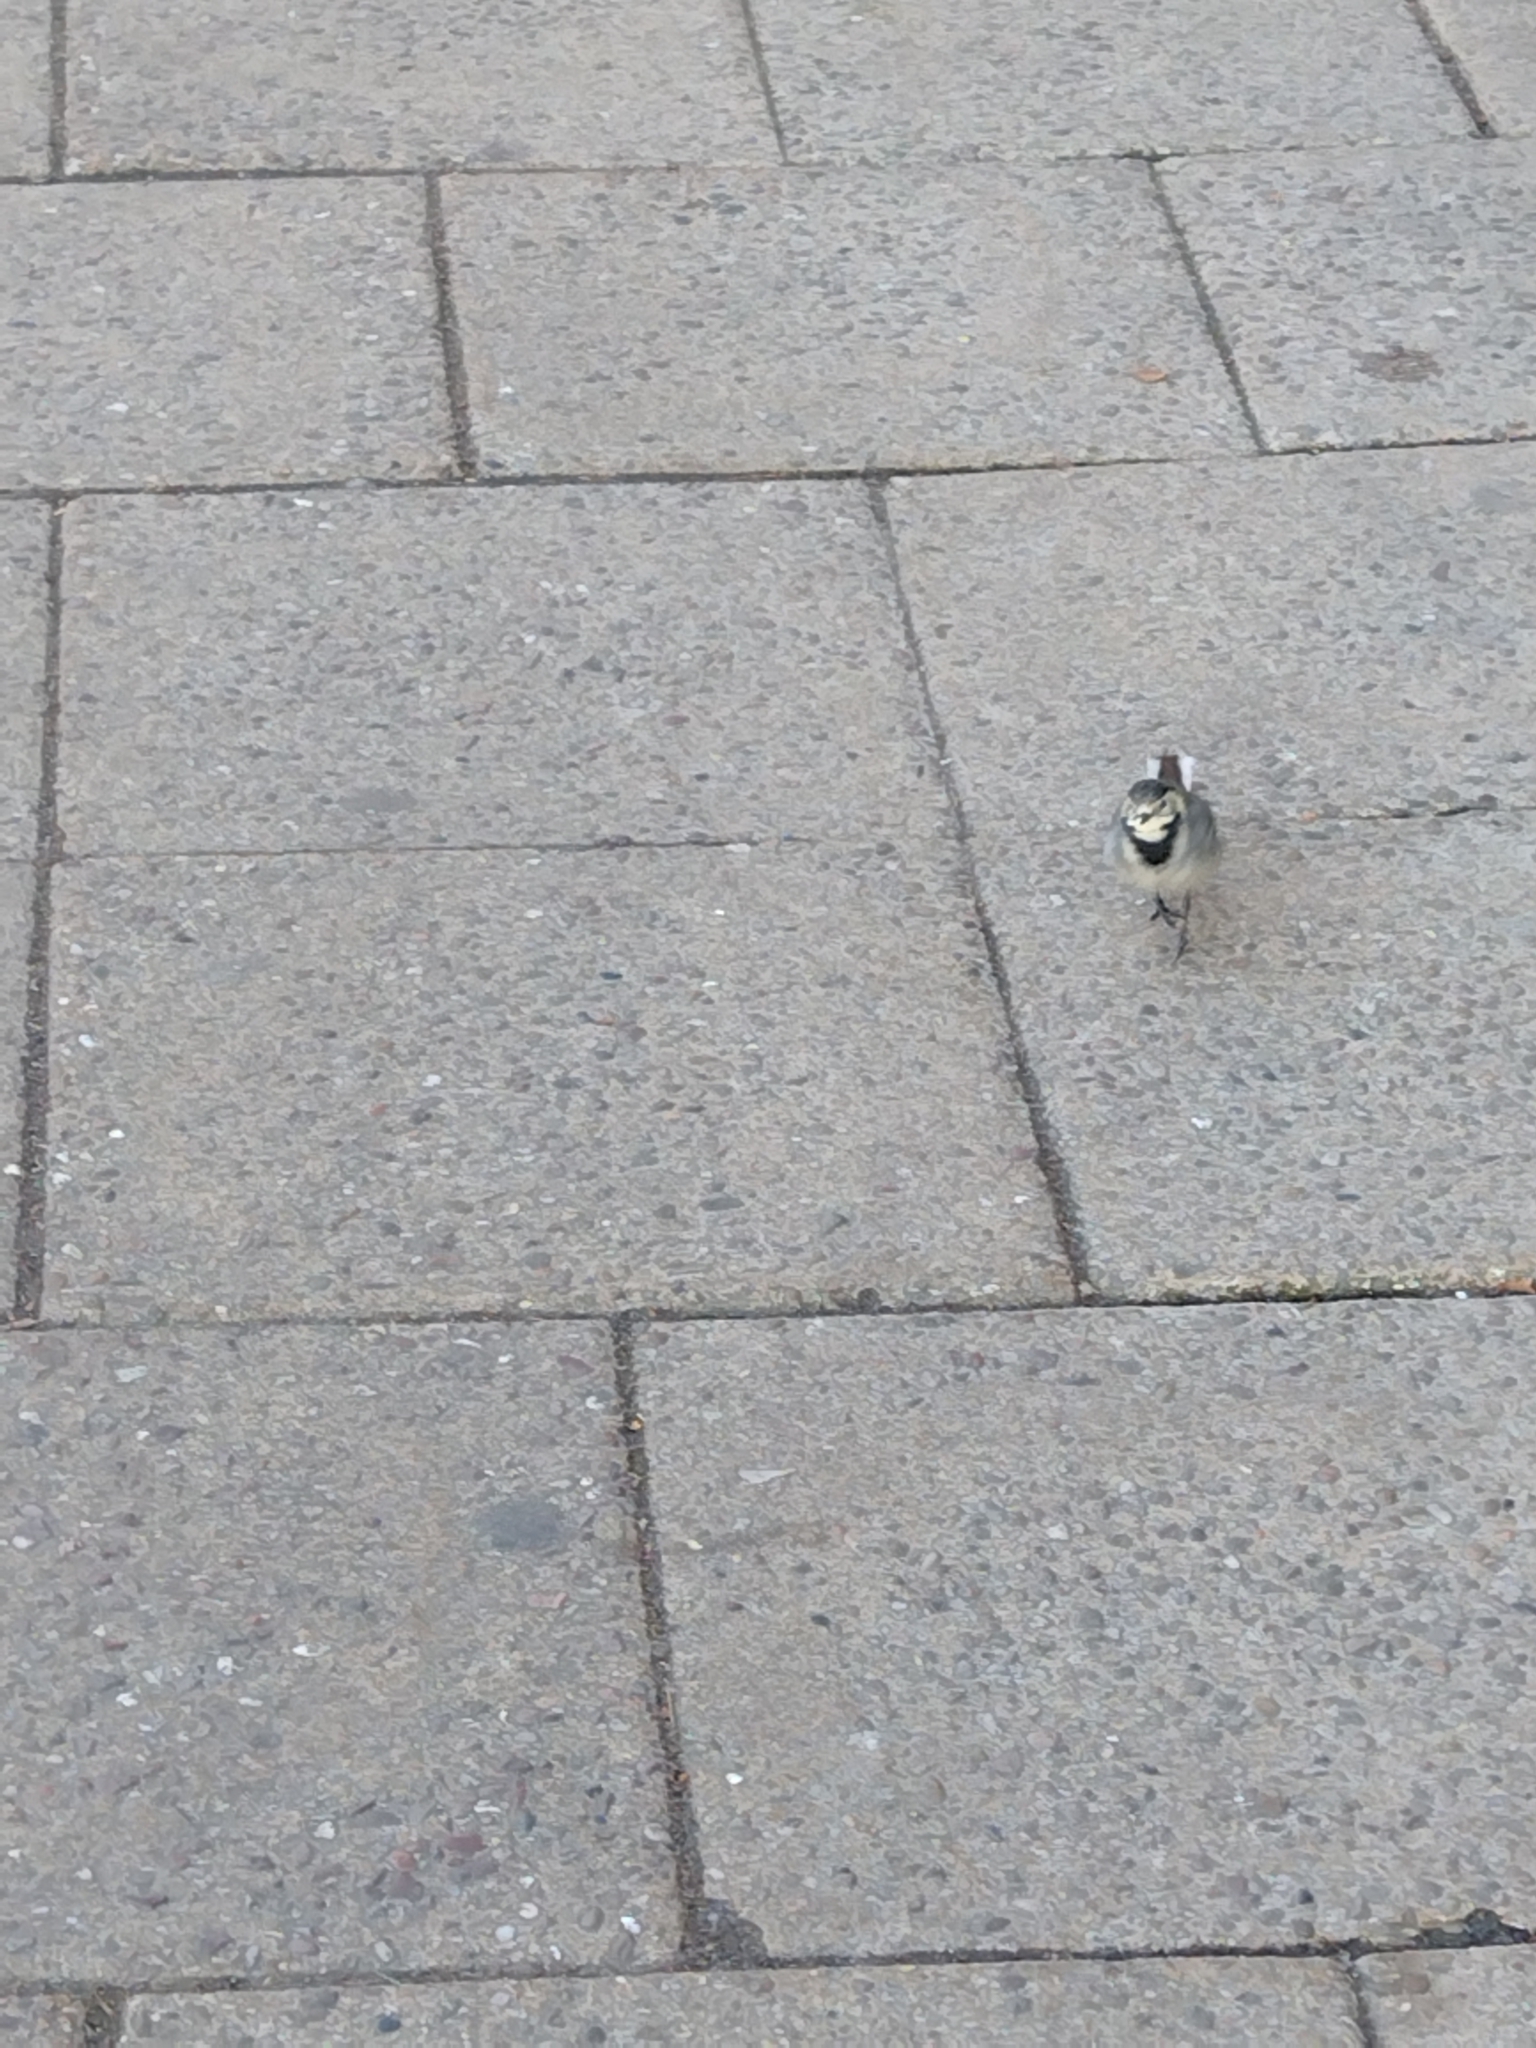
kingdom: Animalia
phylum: Chordata
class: Aves
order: Passeriformes
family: Motacillidae
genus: Motacilla
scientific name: Motacilla alba
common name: White wagtail
